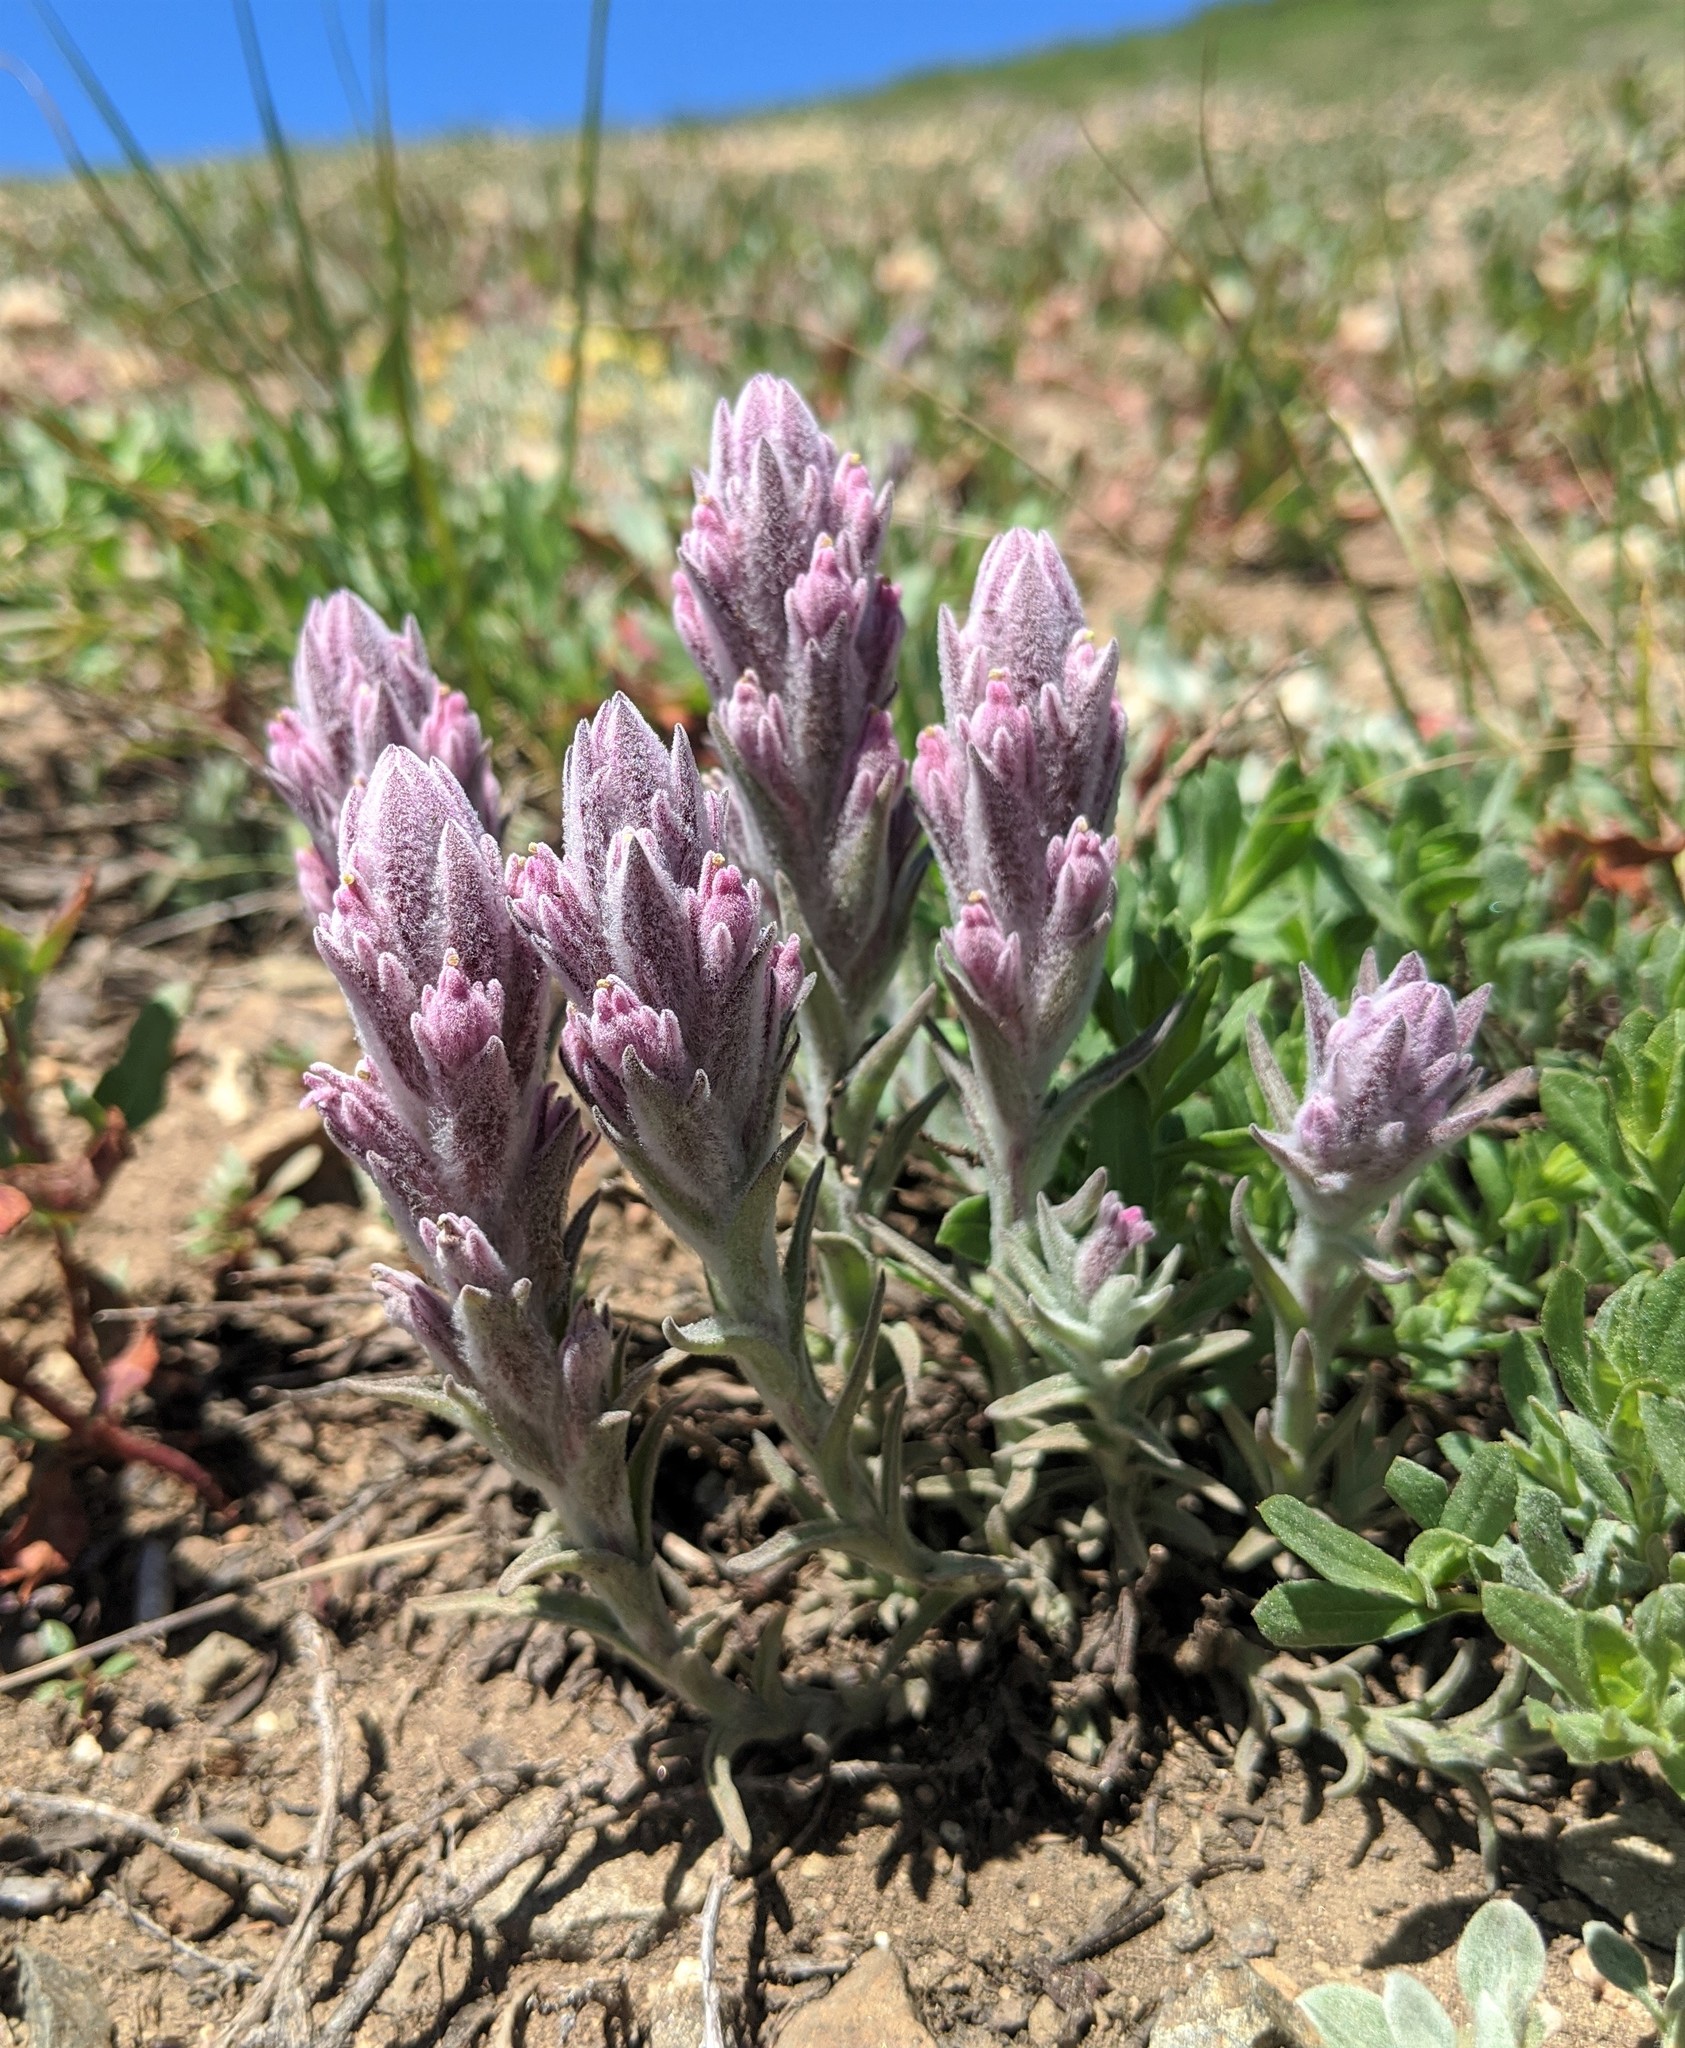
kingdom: Plantae
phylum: Tracheophyta
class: Magnoliopsida
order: Lamiales
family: Orobanchaceae
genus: Castilleja
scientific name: Castilleja schizotricha
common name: Split-hair indian paintbrush
